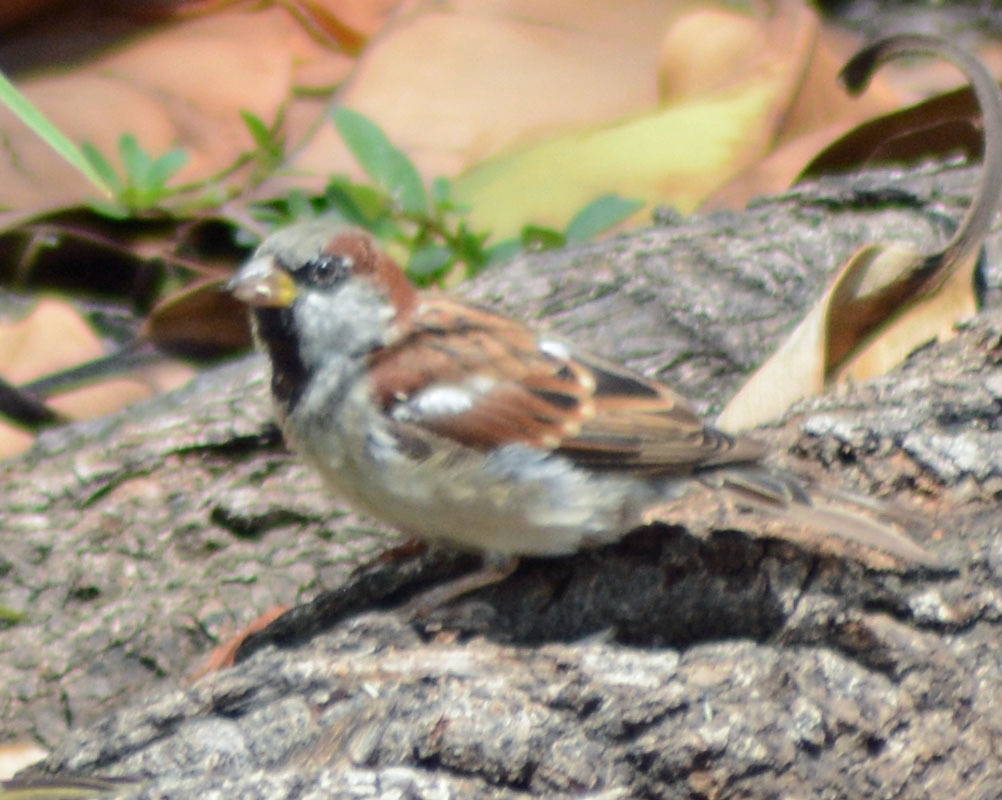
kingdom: Animalia
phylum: Chordata
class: Aves
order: Passeriformes
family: Passeridae
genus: Passer
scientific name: Passer domesticus
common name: House sparrow
